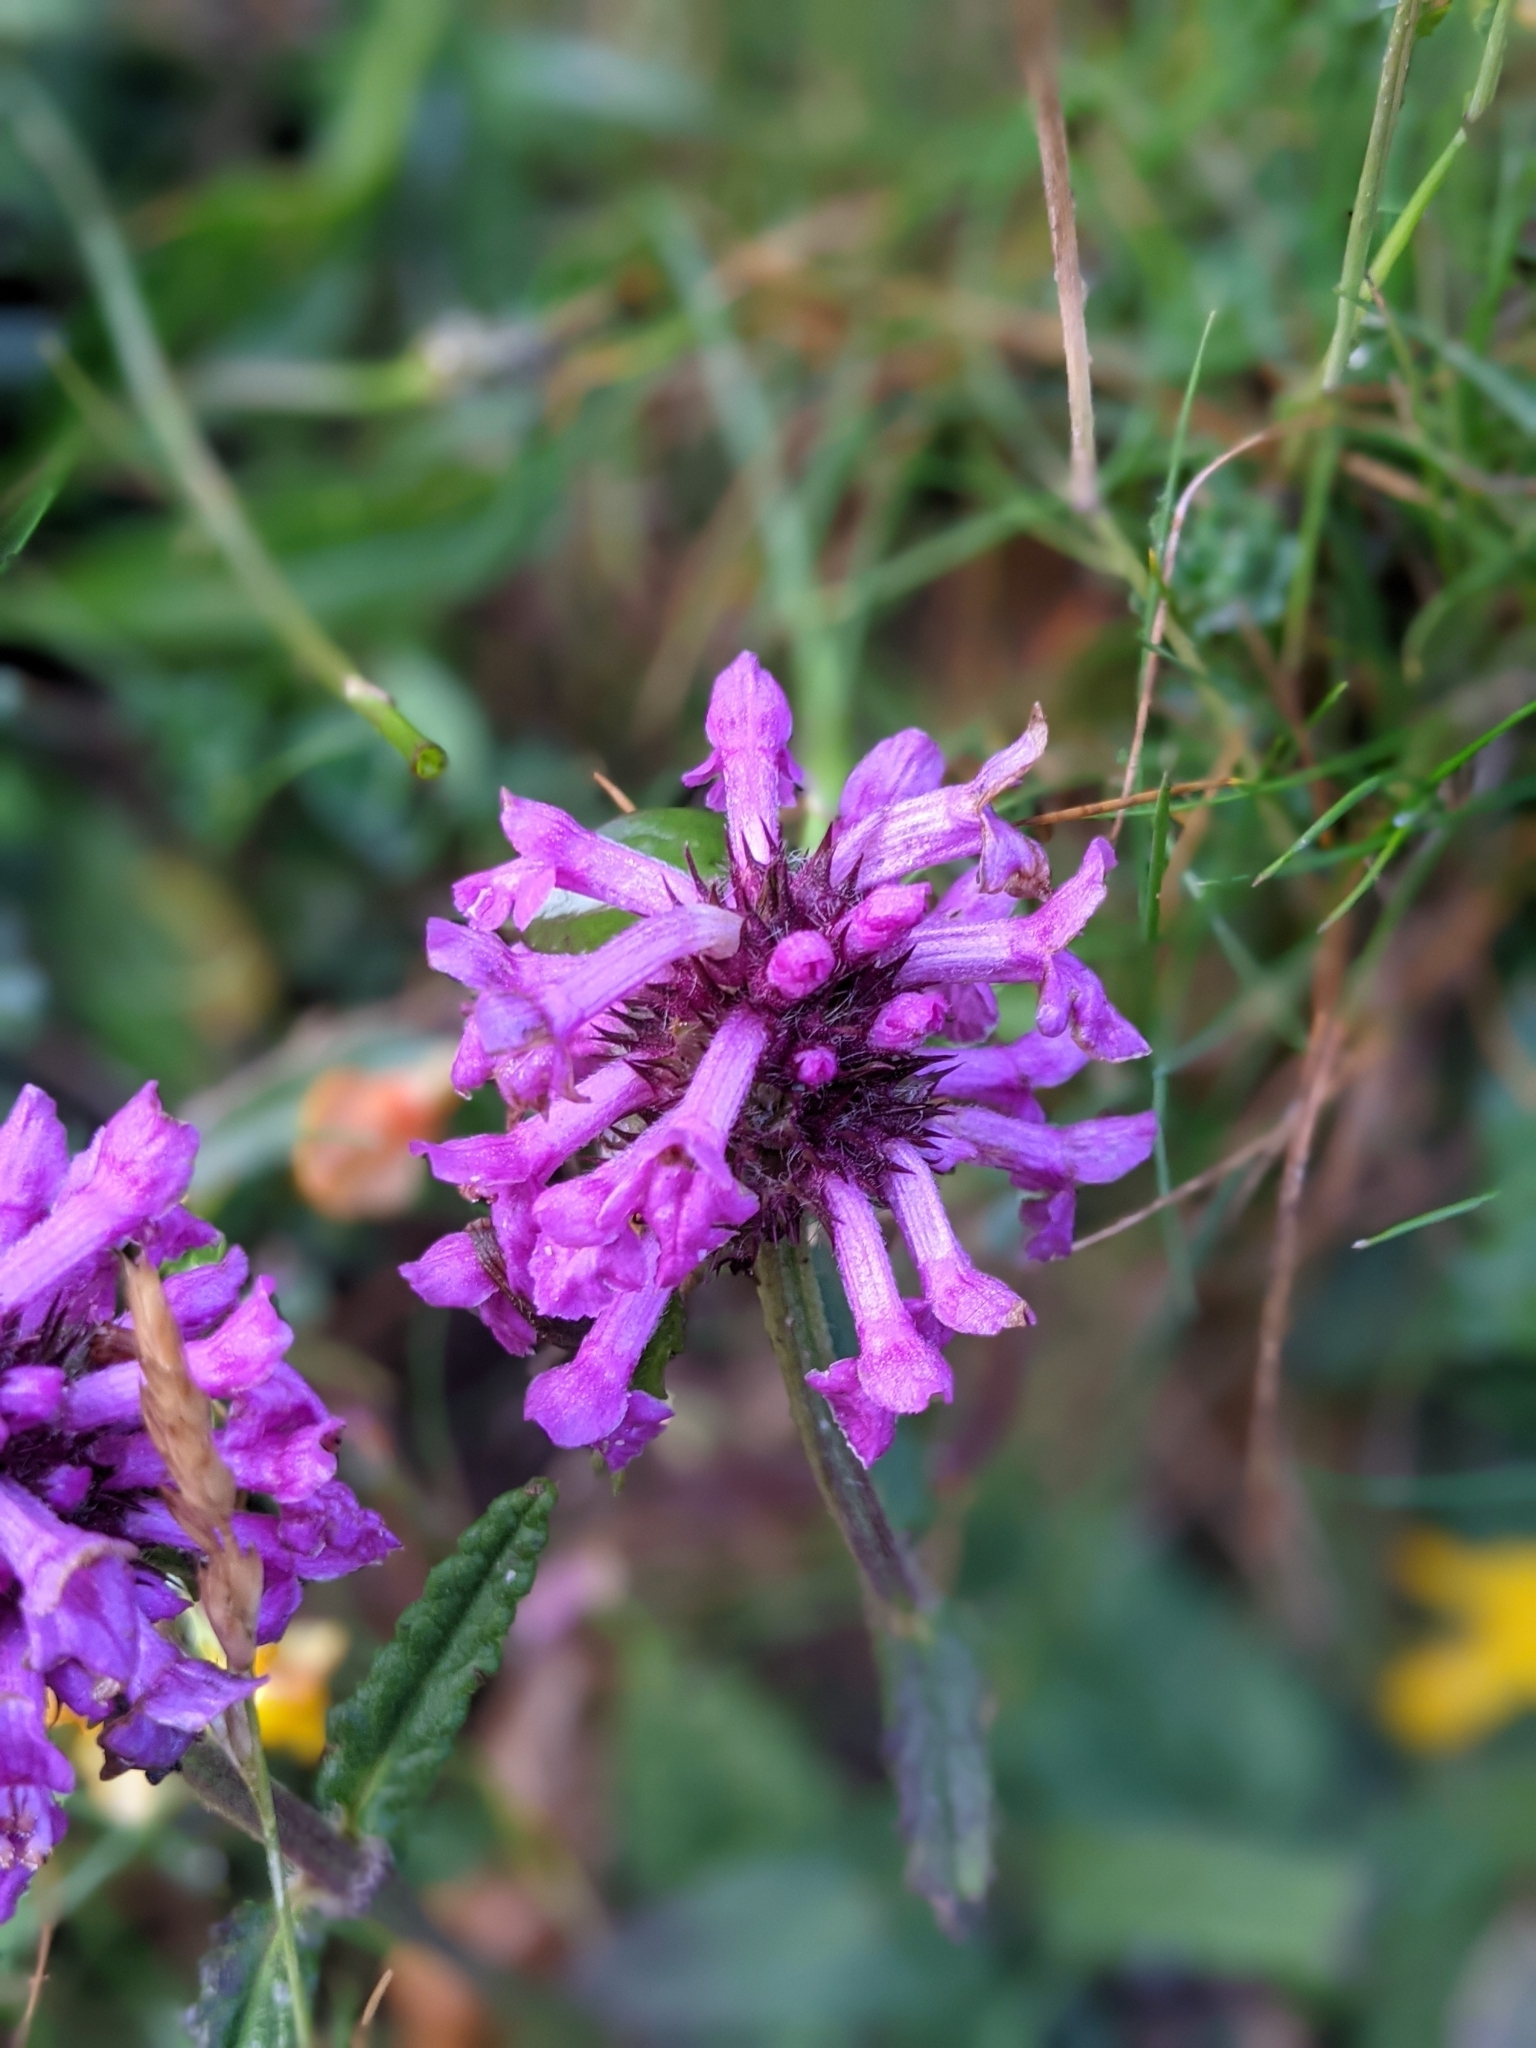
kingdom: Plantae
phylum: Tracheophyta
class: Magnoliopsida
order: Lamiales
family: Lamiaceae
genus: Betonica
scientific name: Betonica officinalis
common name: Bishop's-wort
